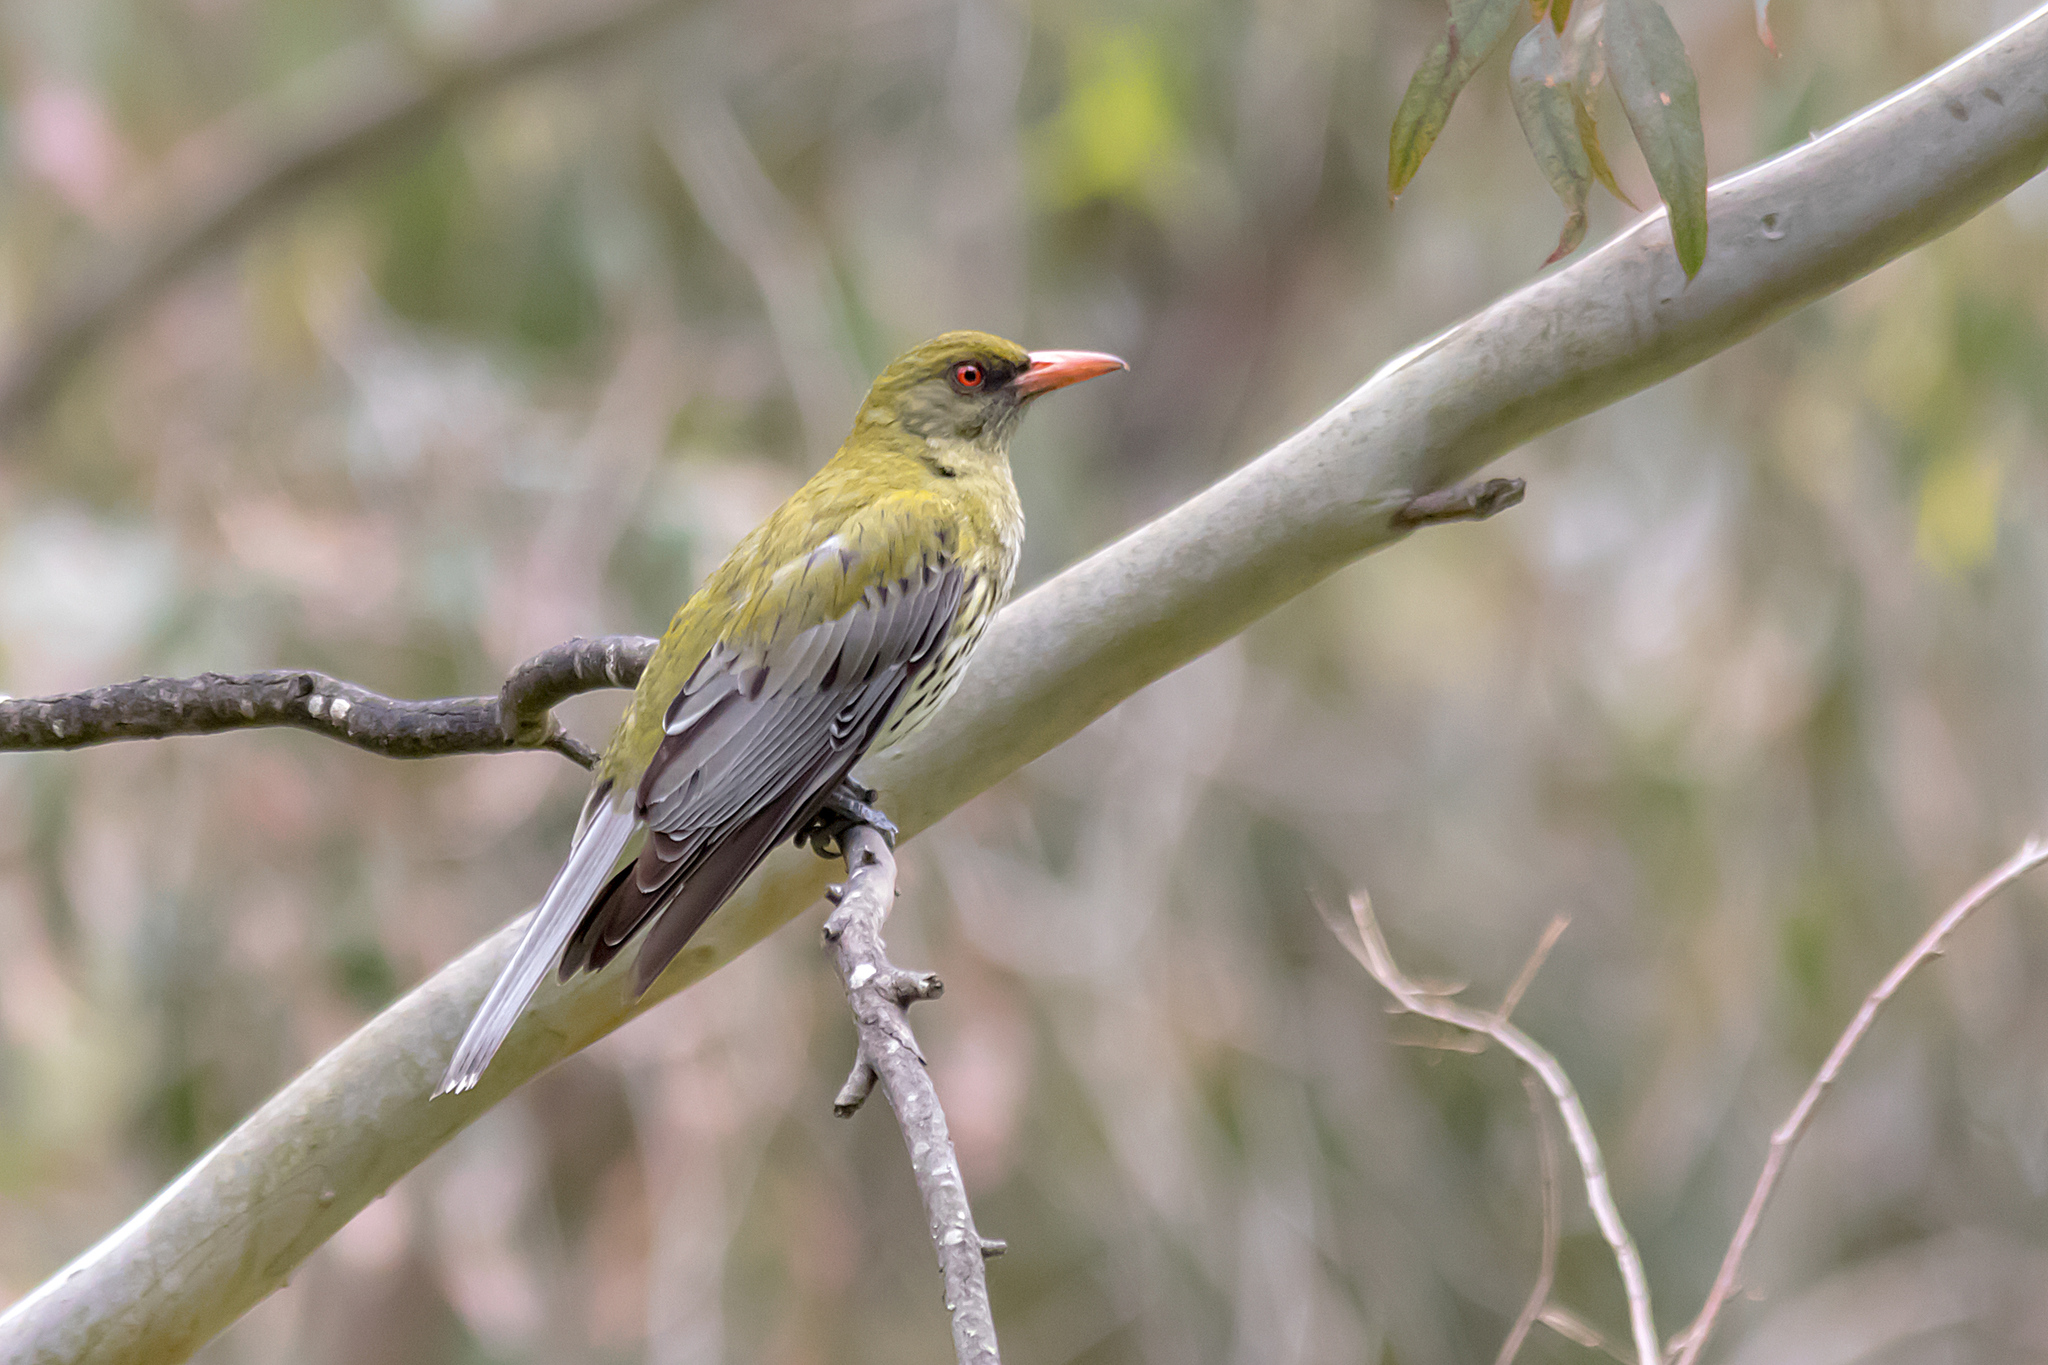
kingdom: Animalia
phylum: Chordata
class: Aves
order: Passeriformes
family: Oriolidae
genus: Oriolus
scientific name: Oriolus sagittatus
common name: Olive-backed oriole
